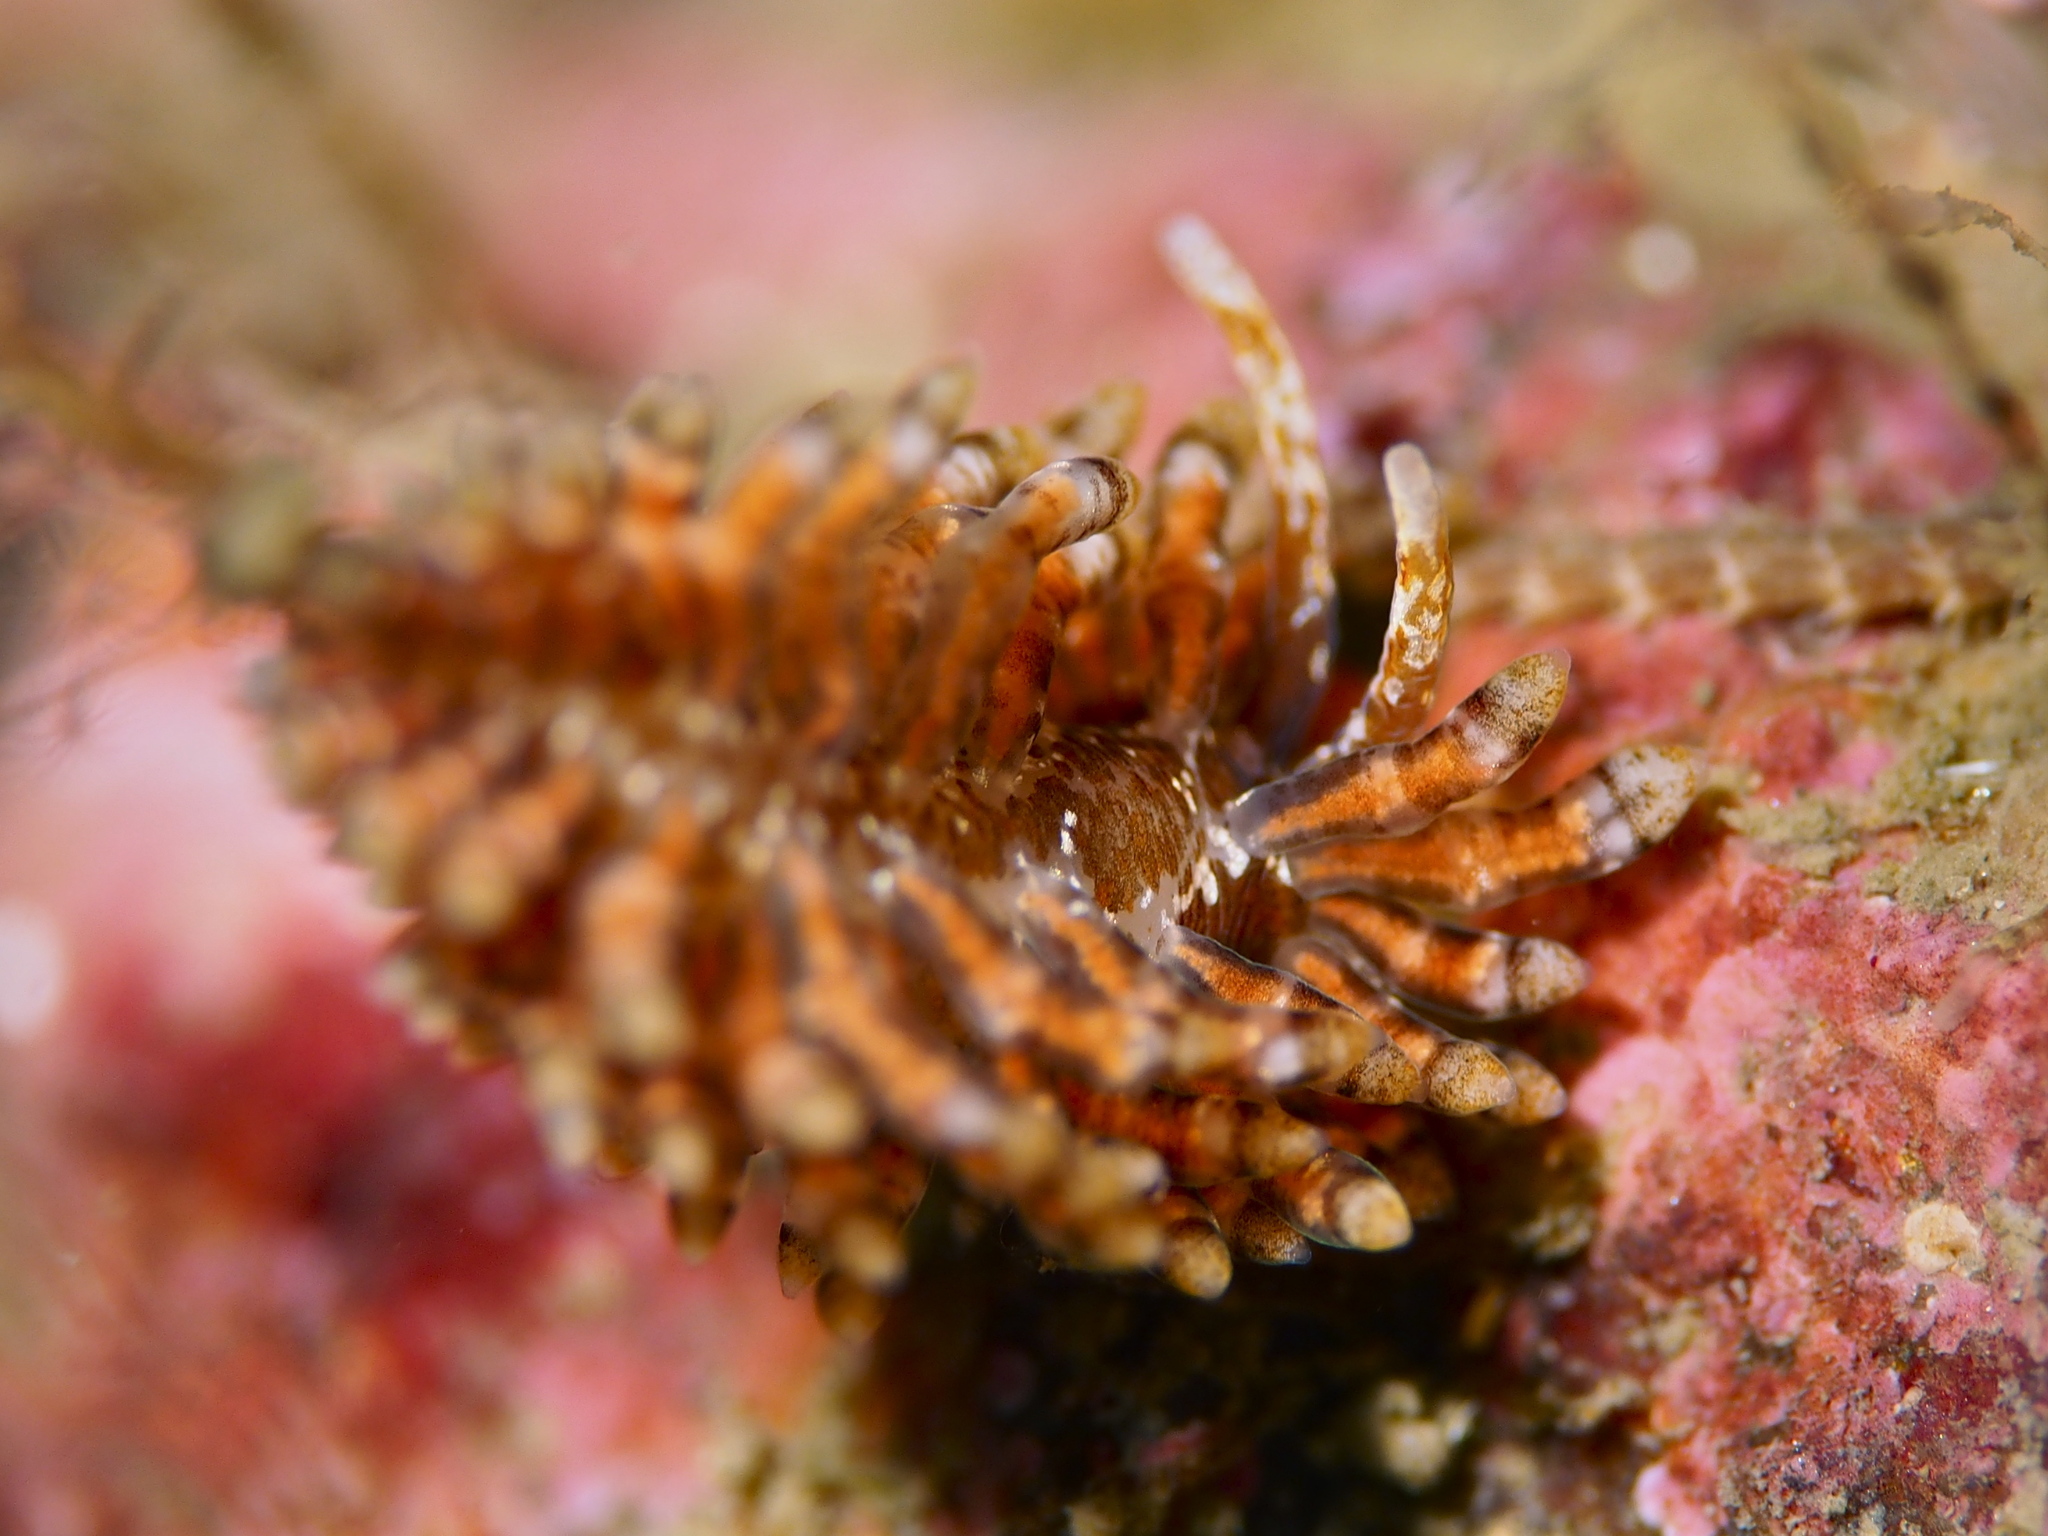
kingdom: Animalia
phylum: Mollusca
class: Gastropoda
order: Nudibranchia
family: Eubranchidae
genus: Eubranchus
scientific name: Eubranchus vittatus
